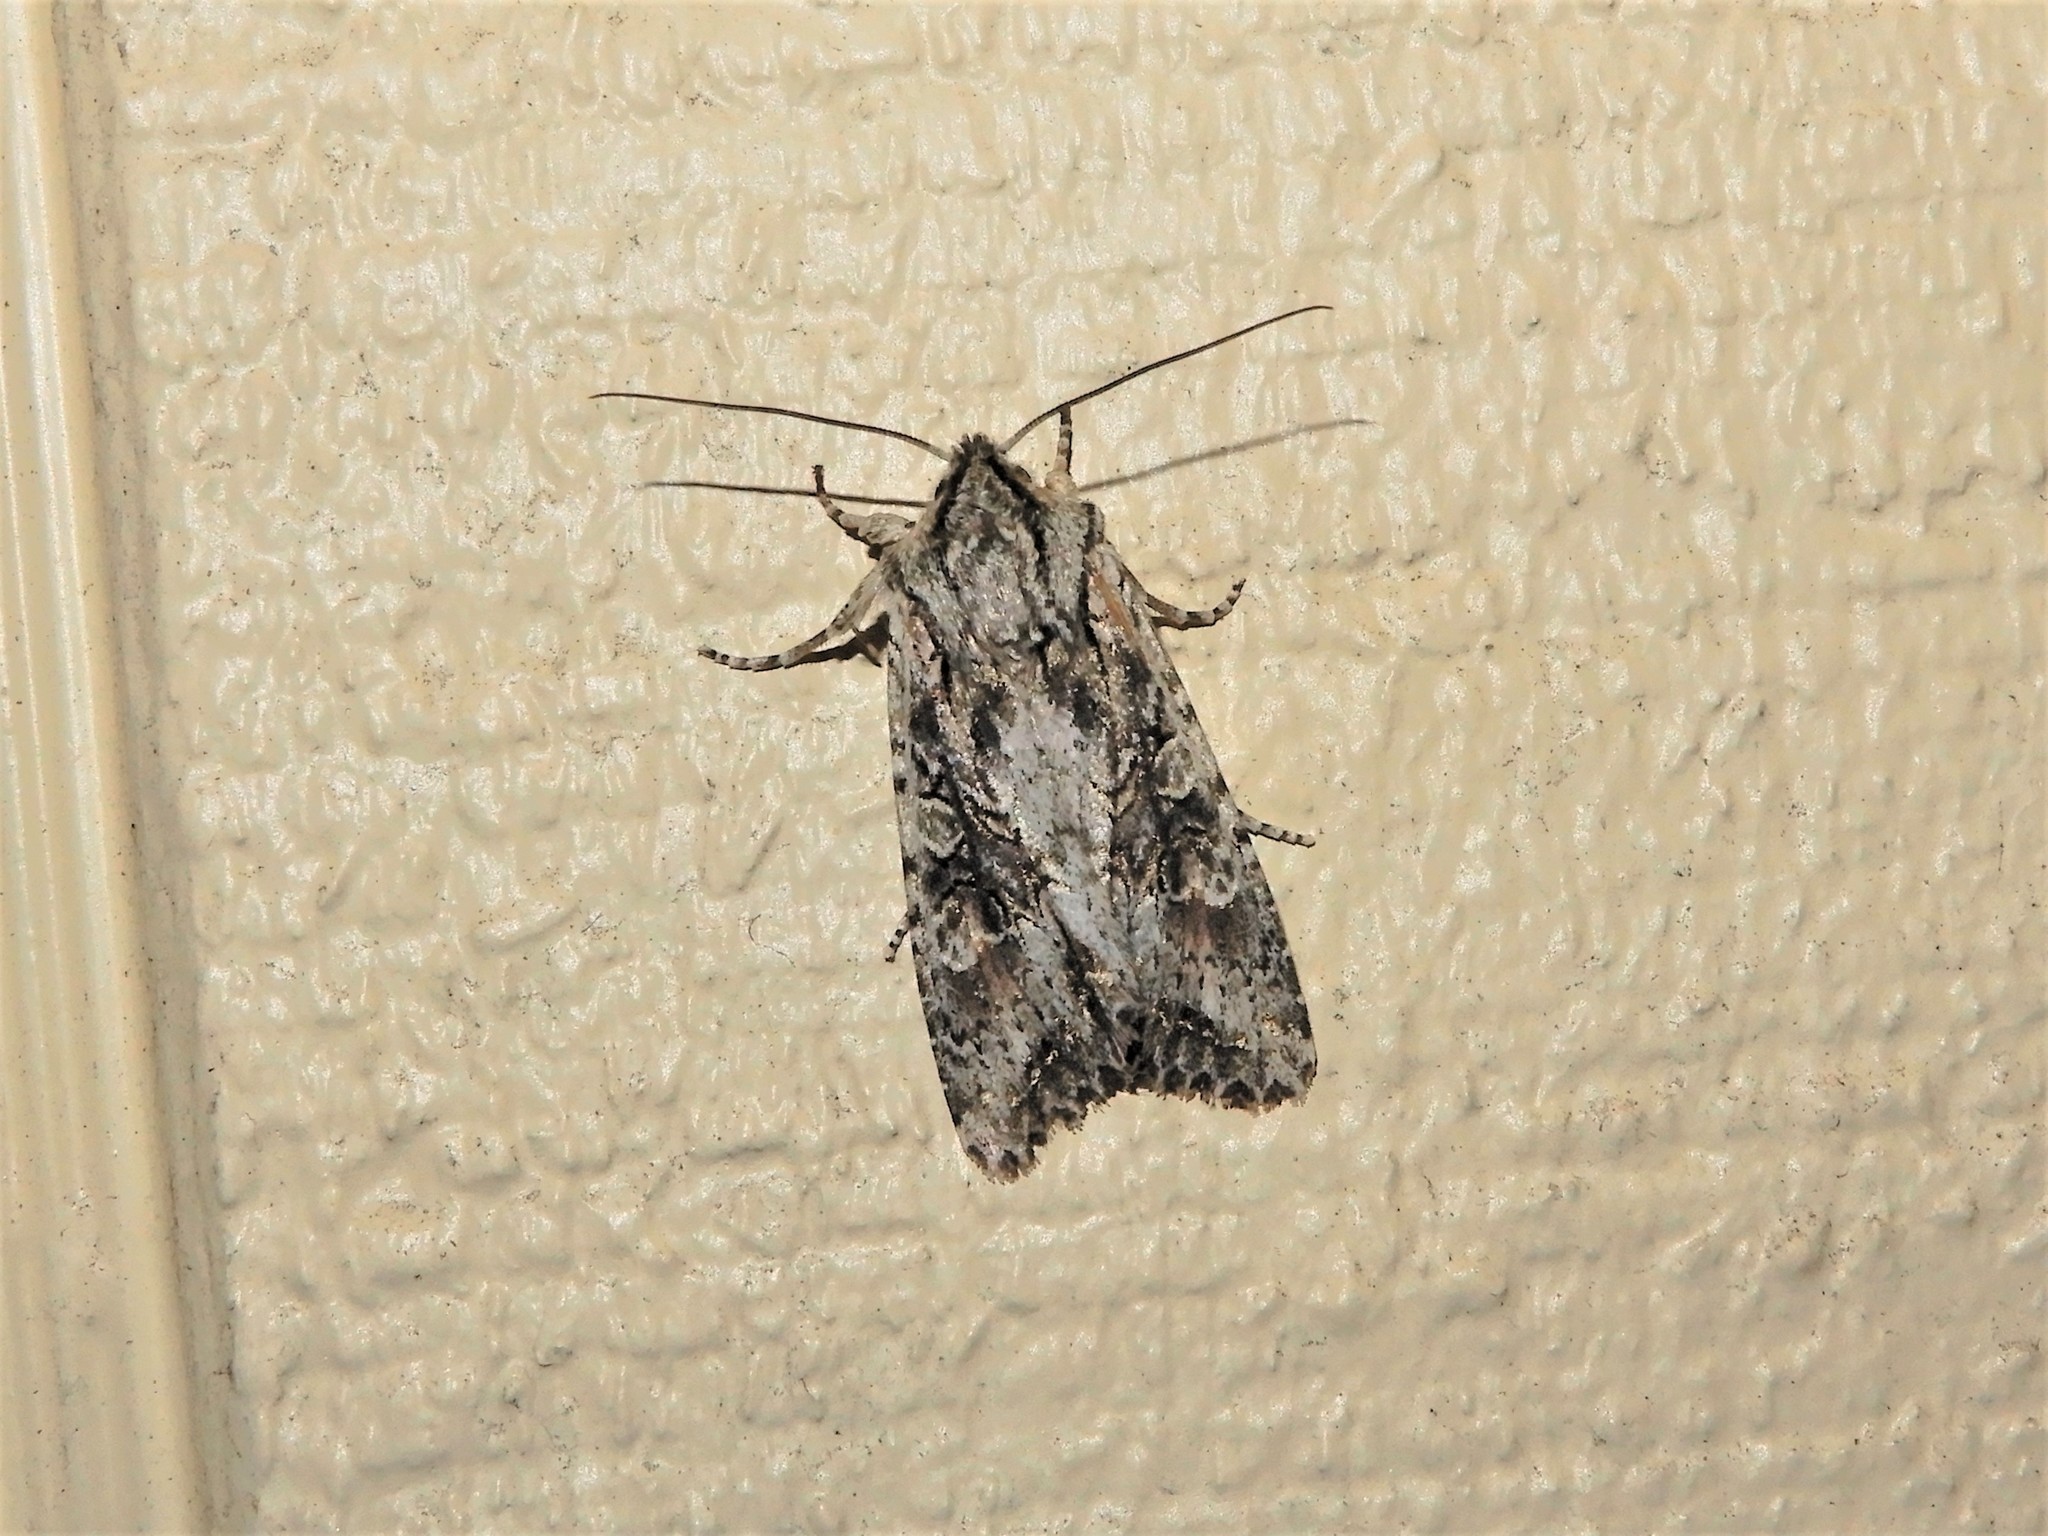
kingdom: Animalia
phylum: Arthropoda
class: Insecta
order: Lepidoptera
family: Noctuidae
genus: Ichneutica
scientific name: Ichneutica mutans
